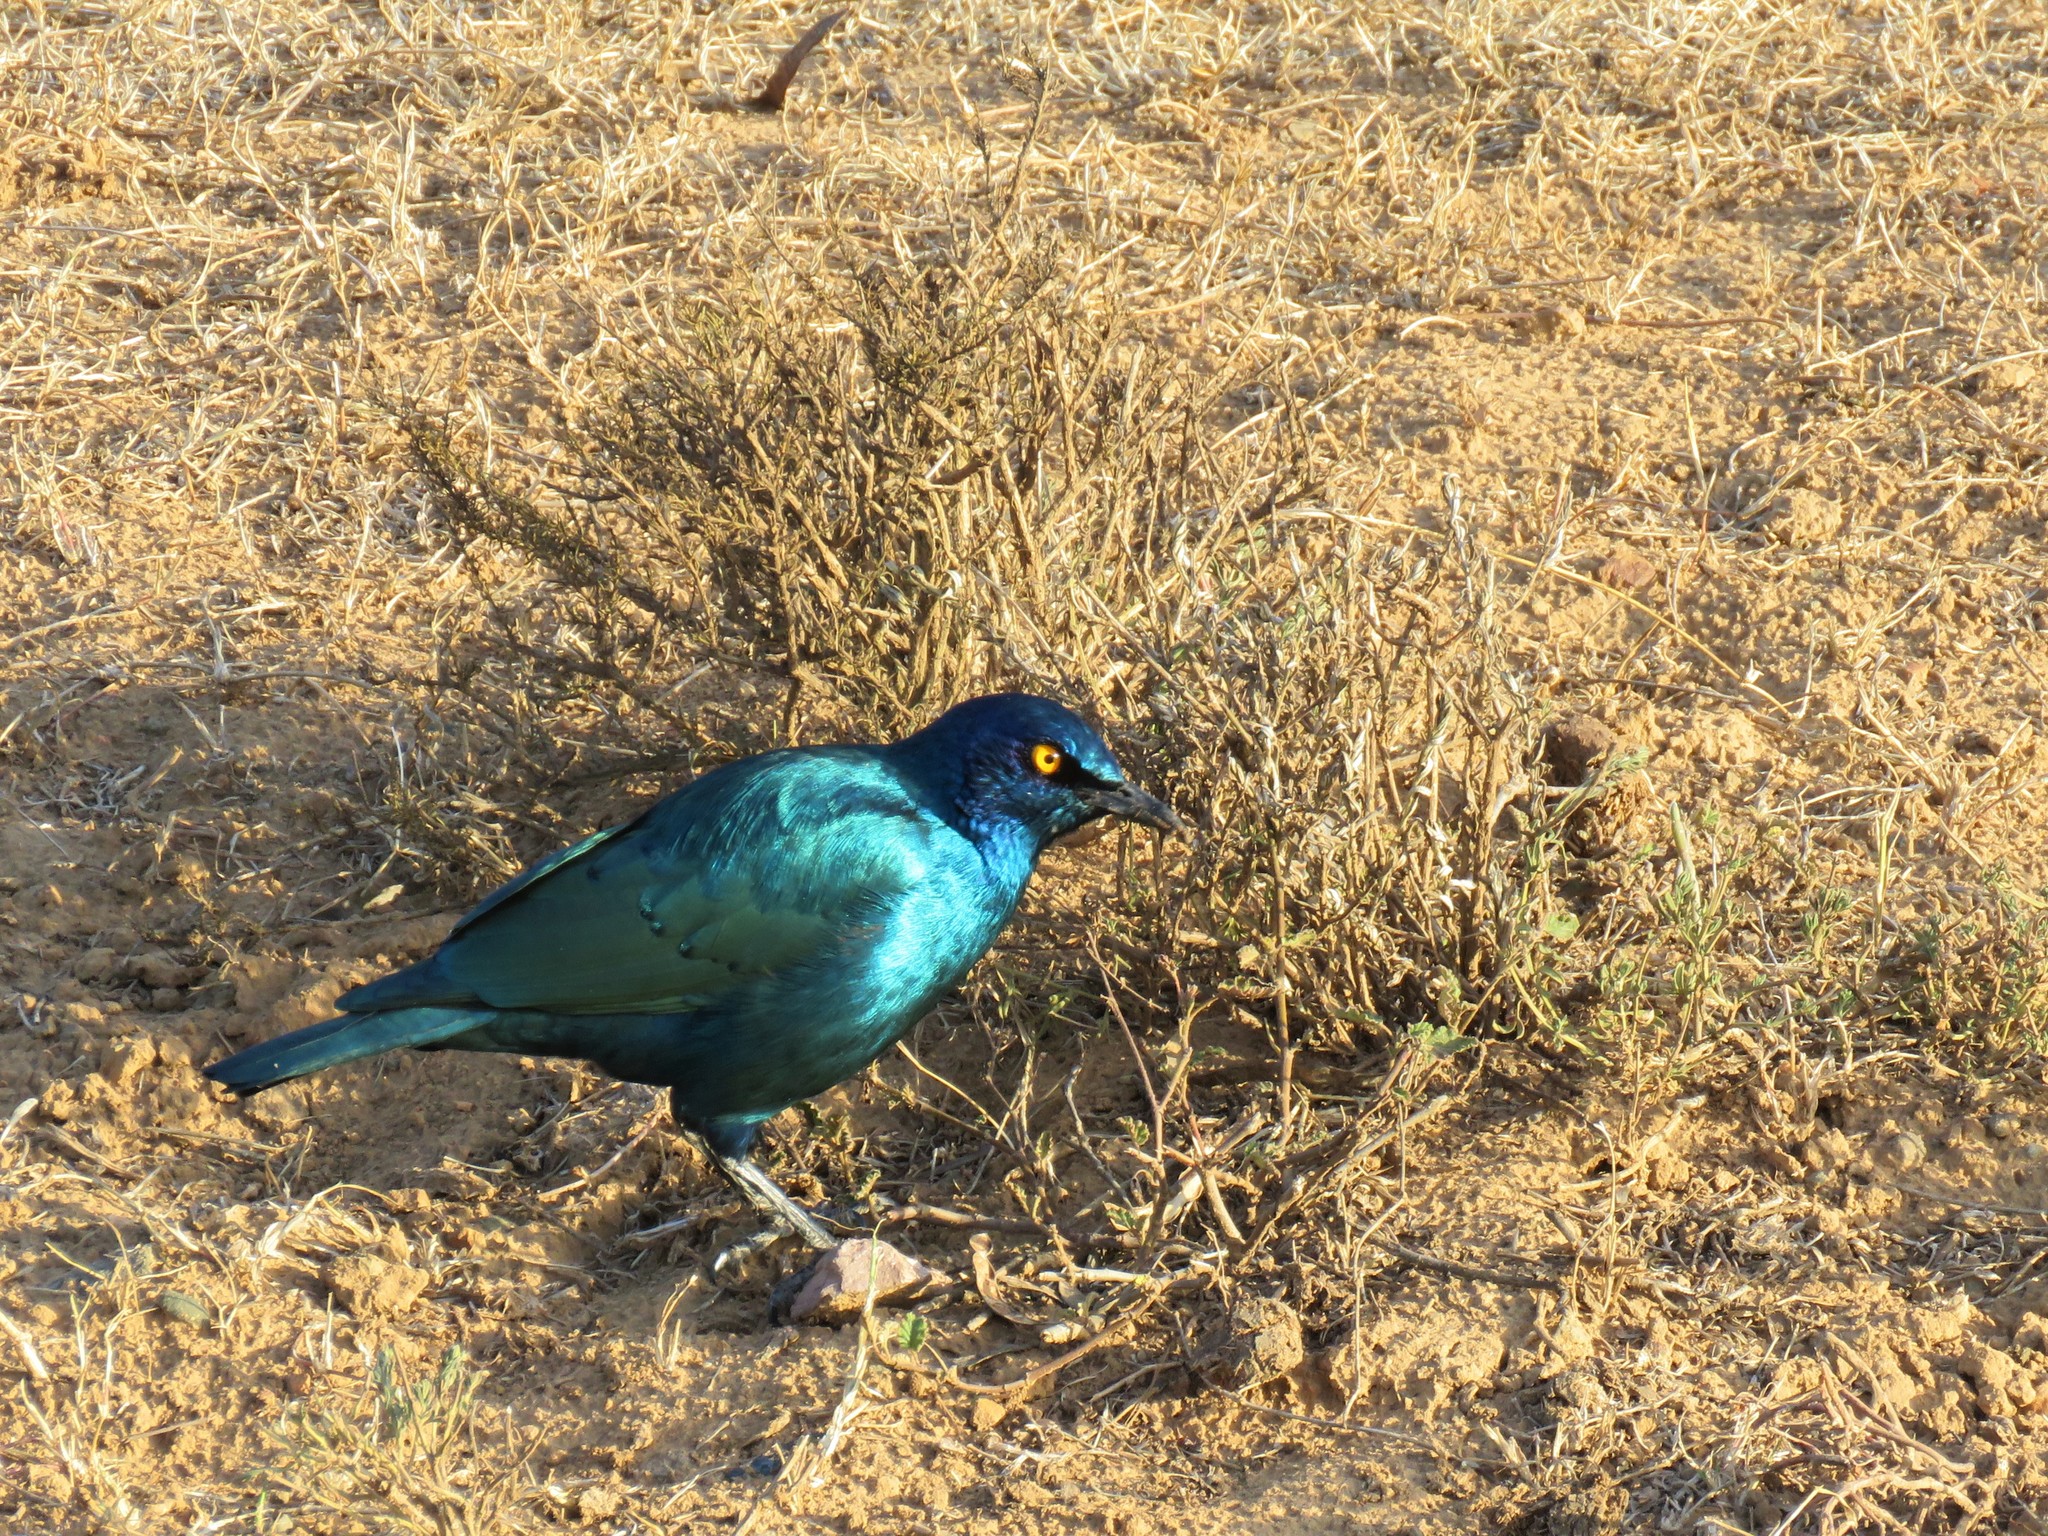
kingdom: Animalia
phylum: Chordata
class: Aves
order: Passeriformes
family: Sturnidae
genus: Lamprotornis
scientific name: Lamprotornis nitens
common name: Cape starling
